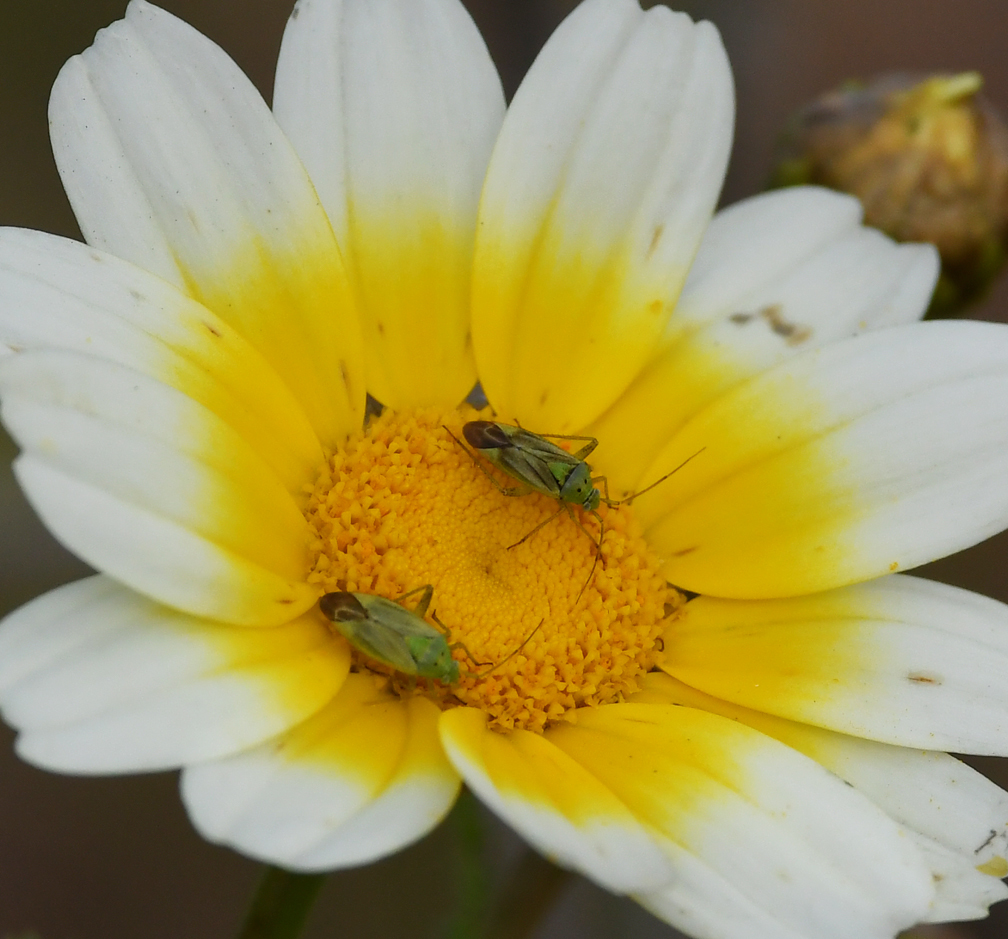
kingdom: Animalia
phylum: Arthropoda
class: Insecta
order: Hemiptera
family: Miridae
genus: Closterotomus
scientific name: Closterotomus norvegicus
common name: Plant bug
